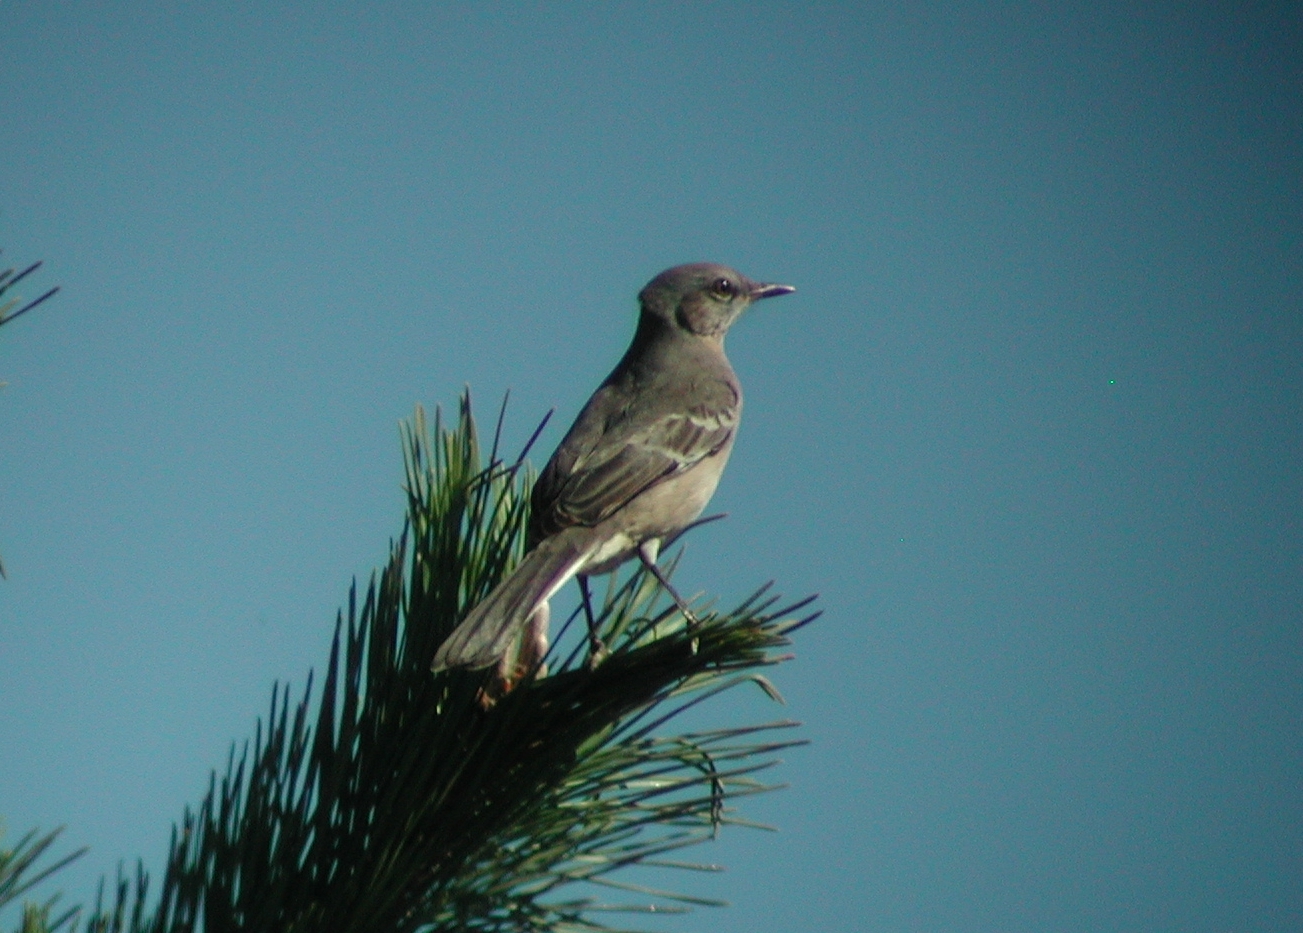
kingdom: Animalia
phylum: Chordata
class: Aves
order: Passeriformes
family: Mimidae
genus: Mimus
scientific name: Mimus polyglottos
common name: Northern mockingbird
